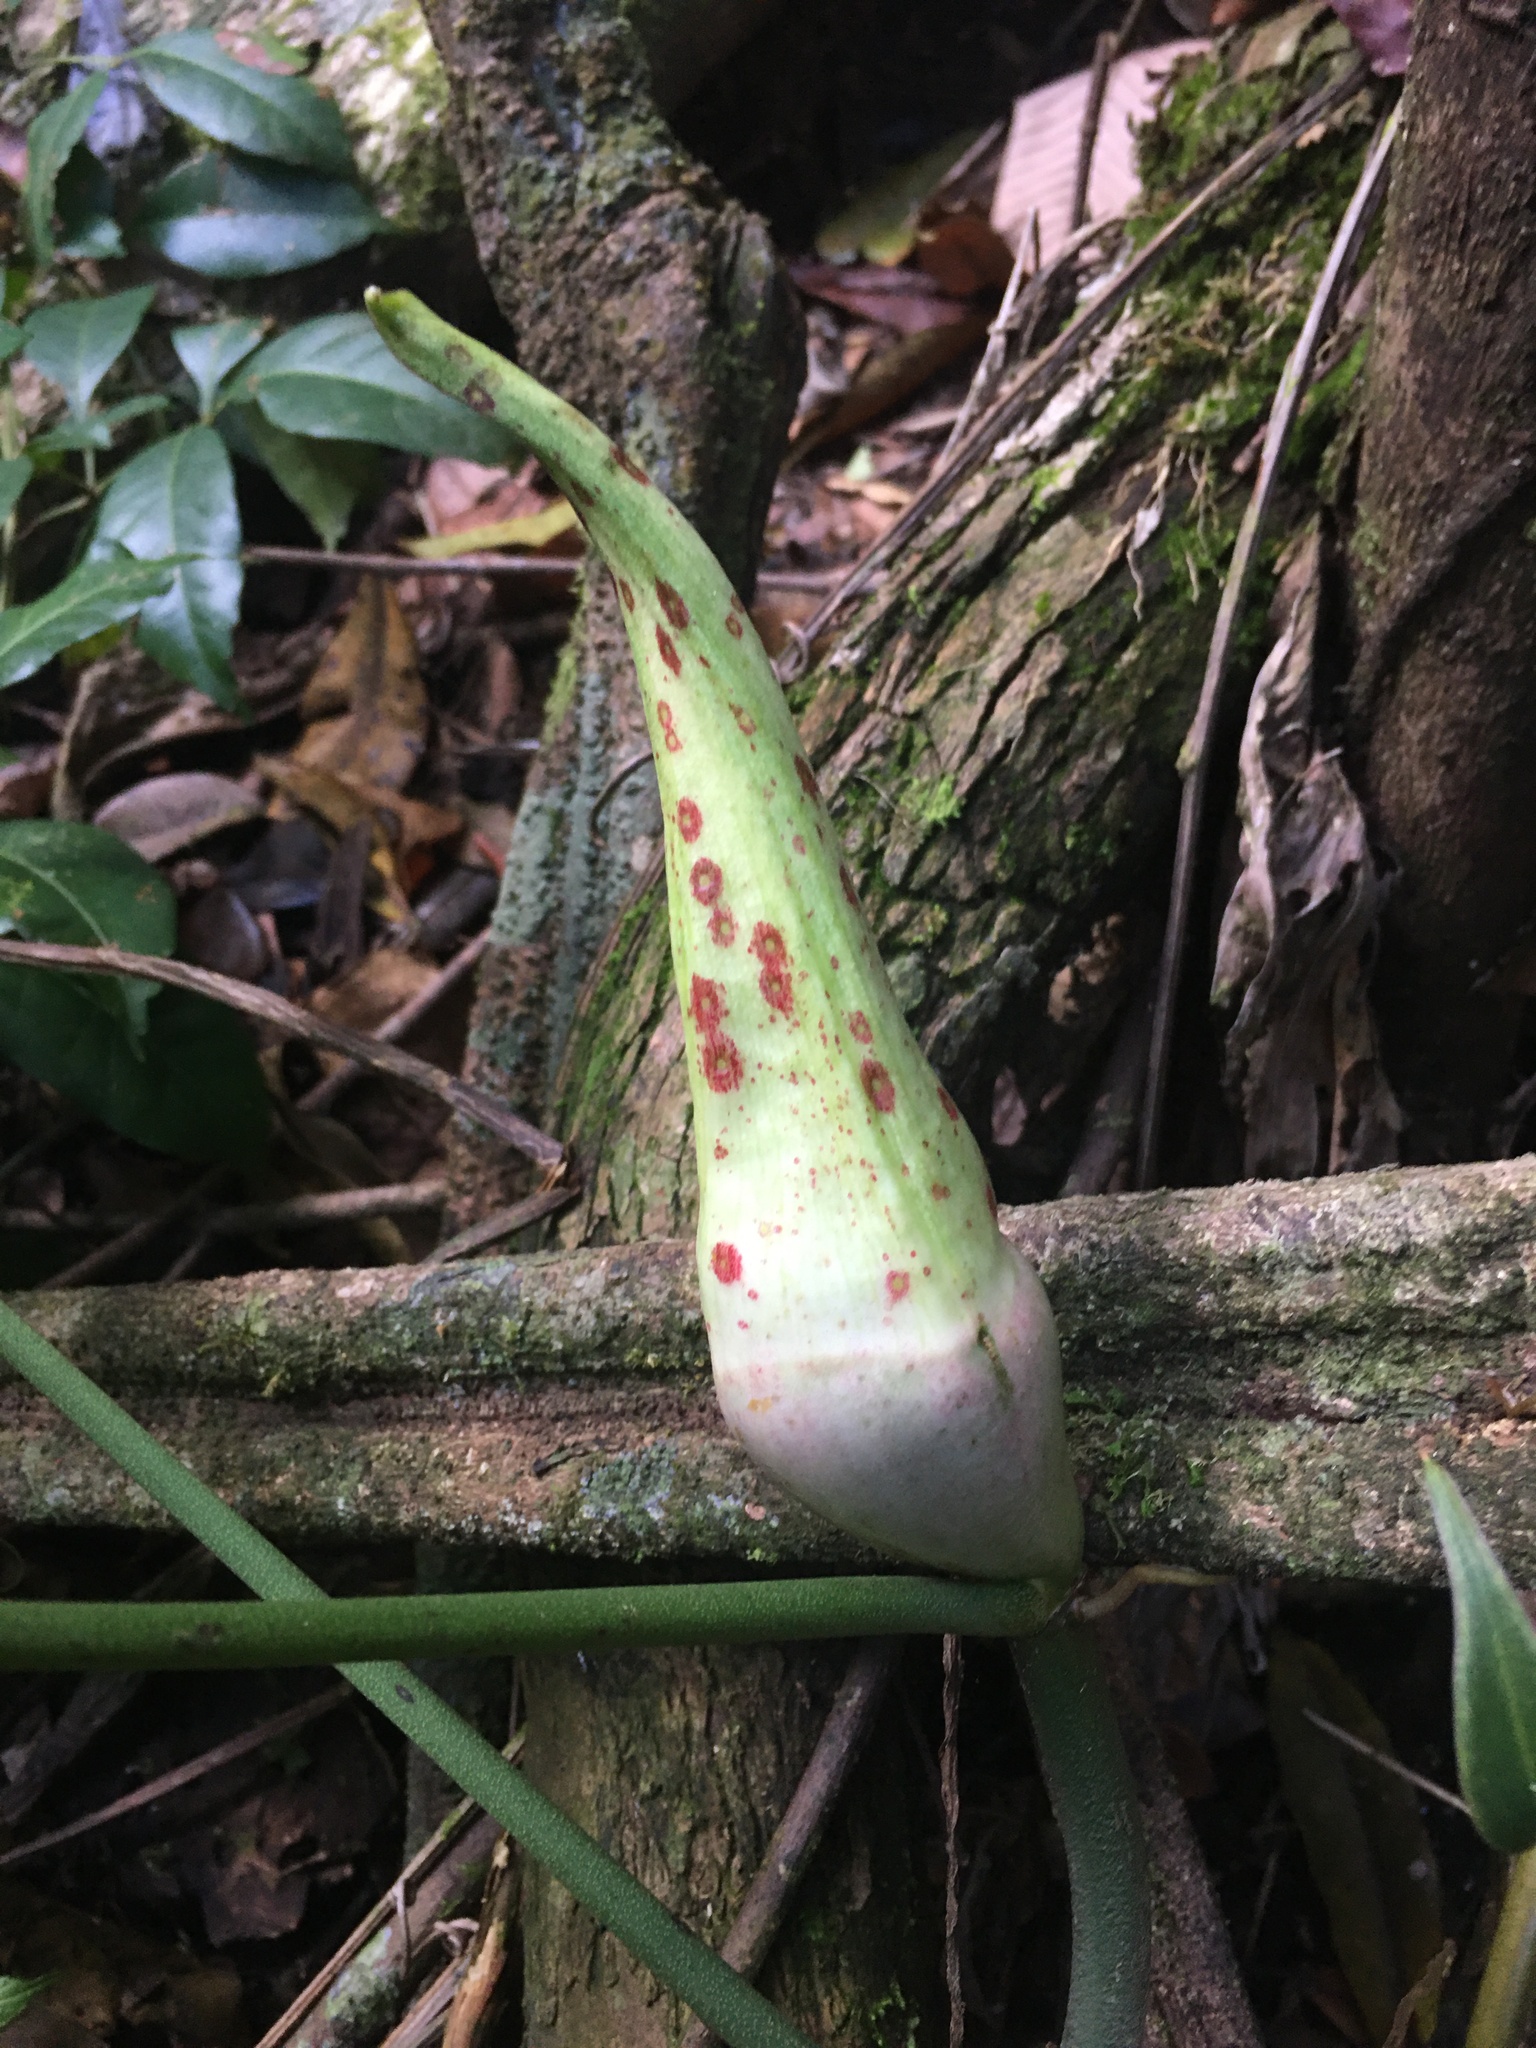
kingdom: Plantae
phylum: Tracheophyta
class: Liliopsida
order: Alismatales
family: Araceae
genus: Philodendron
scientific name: Philodendron pedatum
